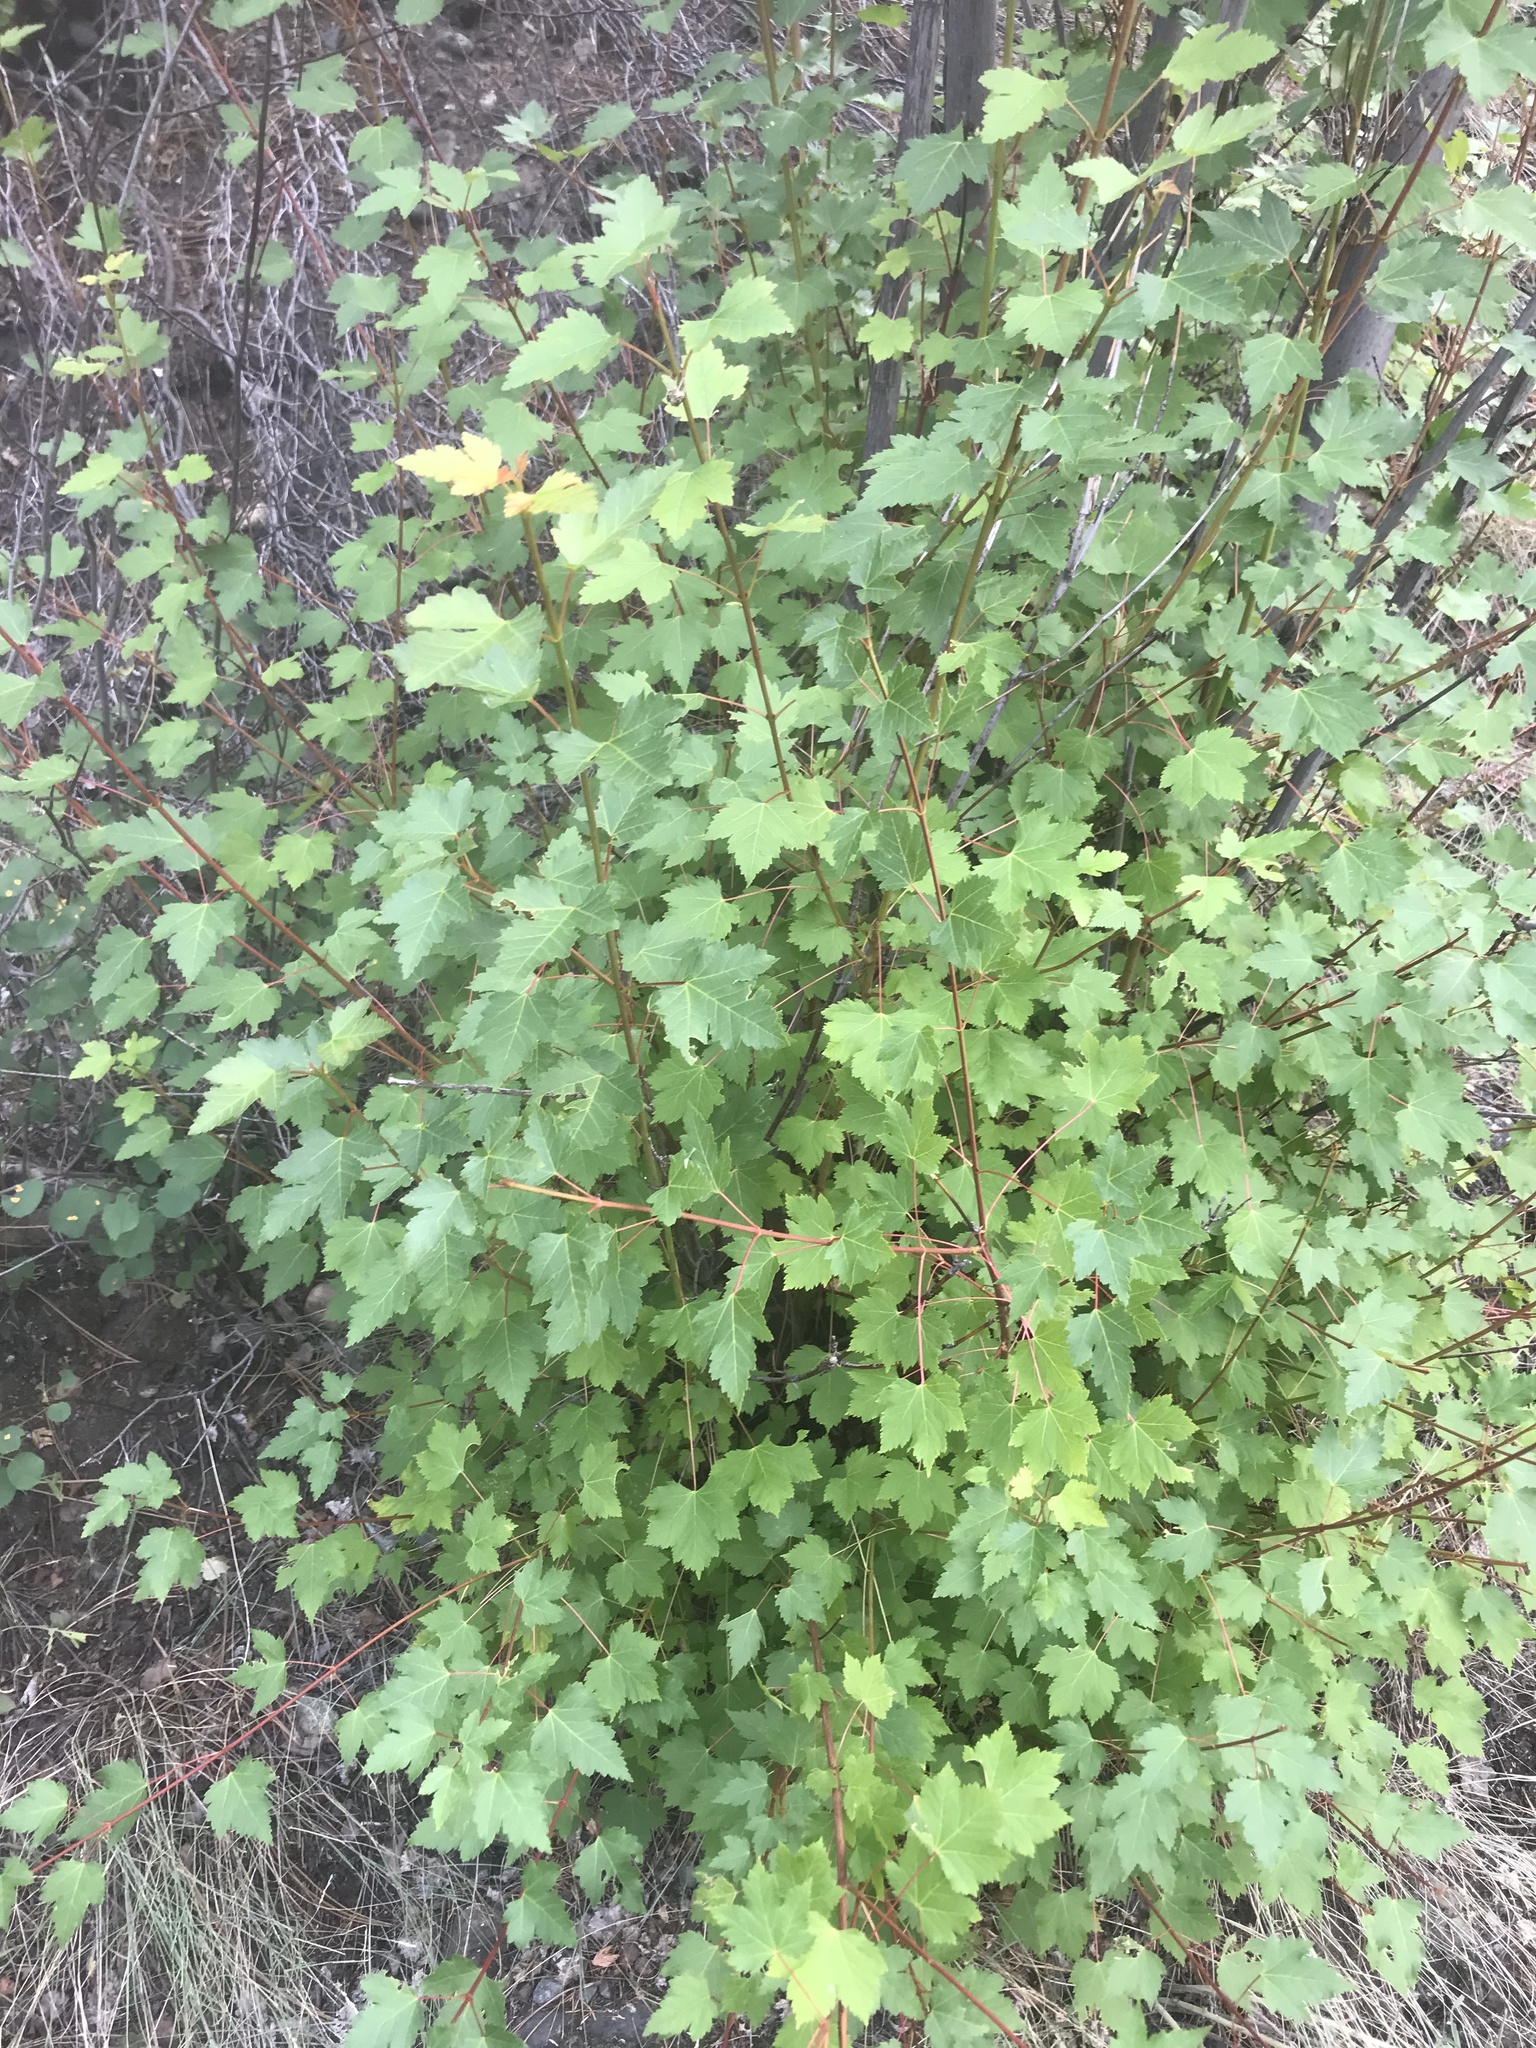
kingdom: Plantae
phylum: Tracheophyta
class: Magnoliopsida
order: Sapindales
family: Sapindaceae
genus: Acer
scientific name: Acer glabrum
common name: Rocky mountain maple
